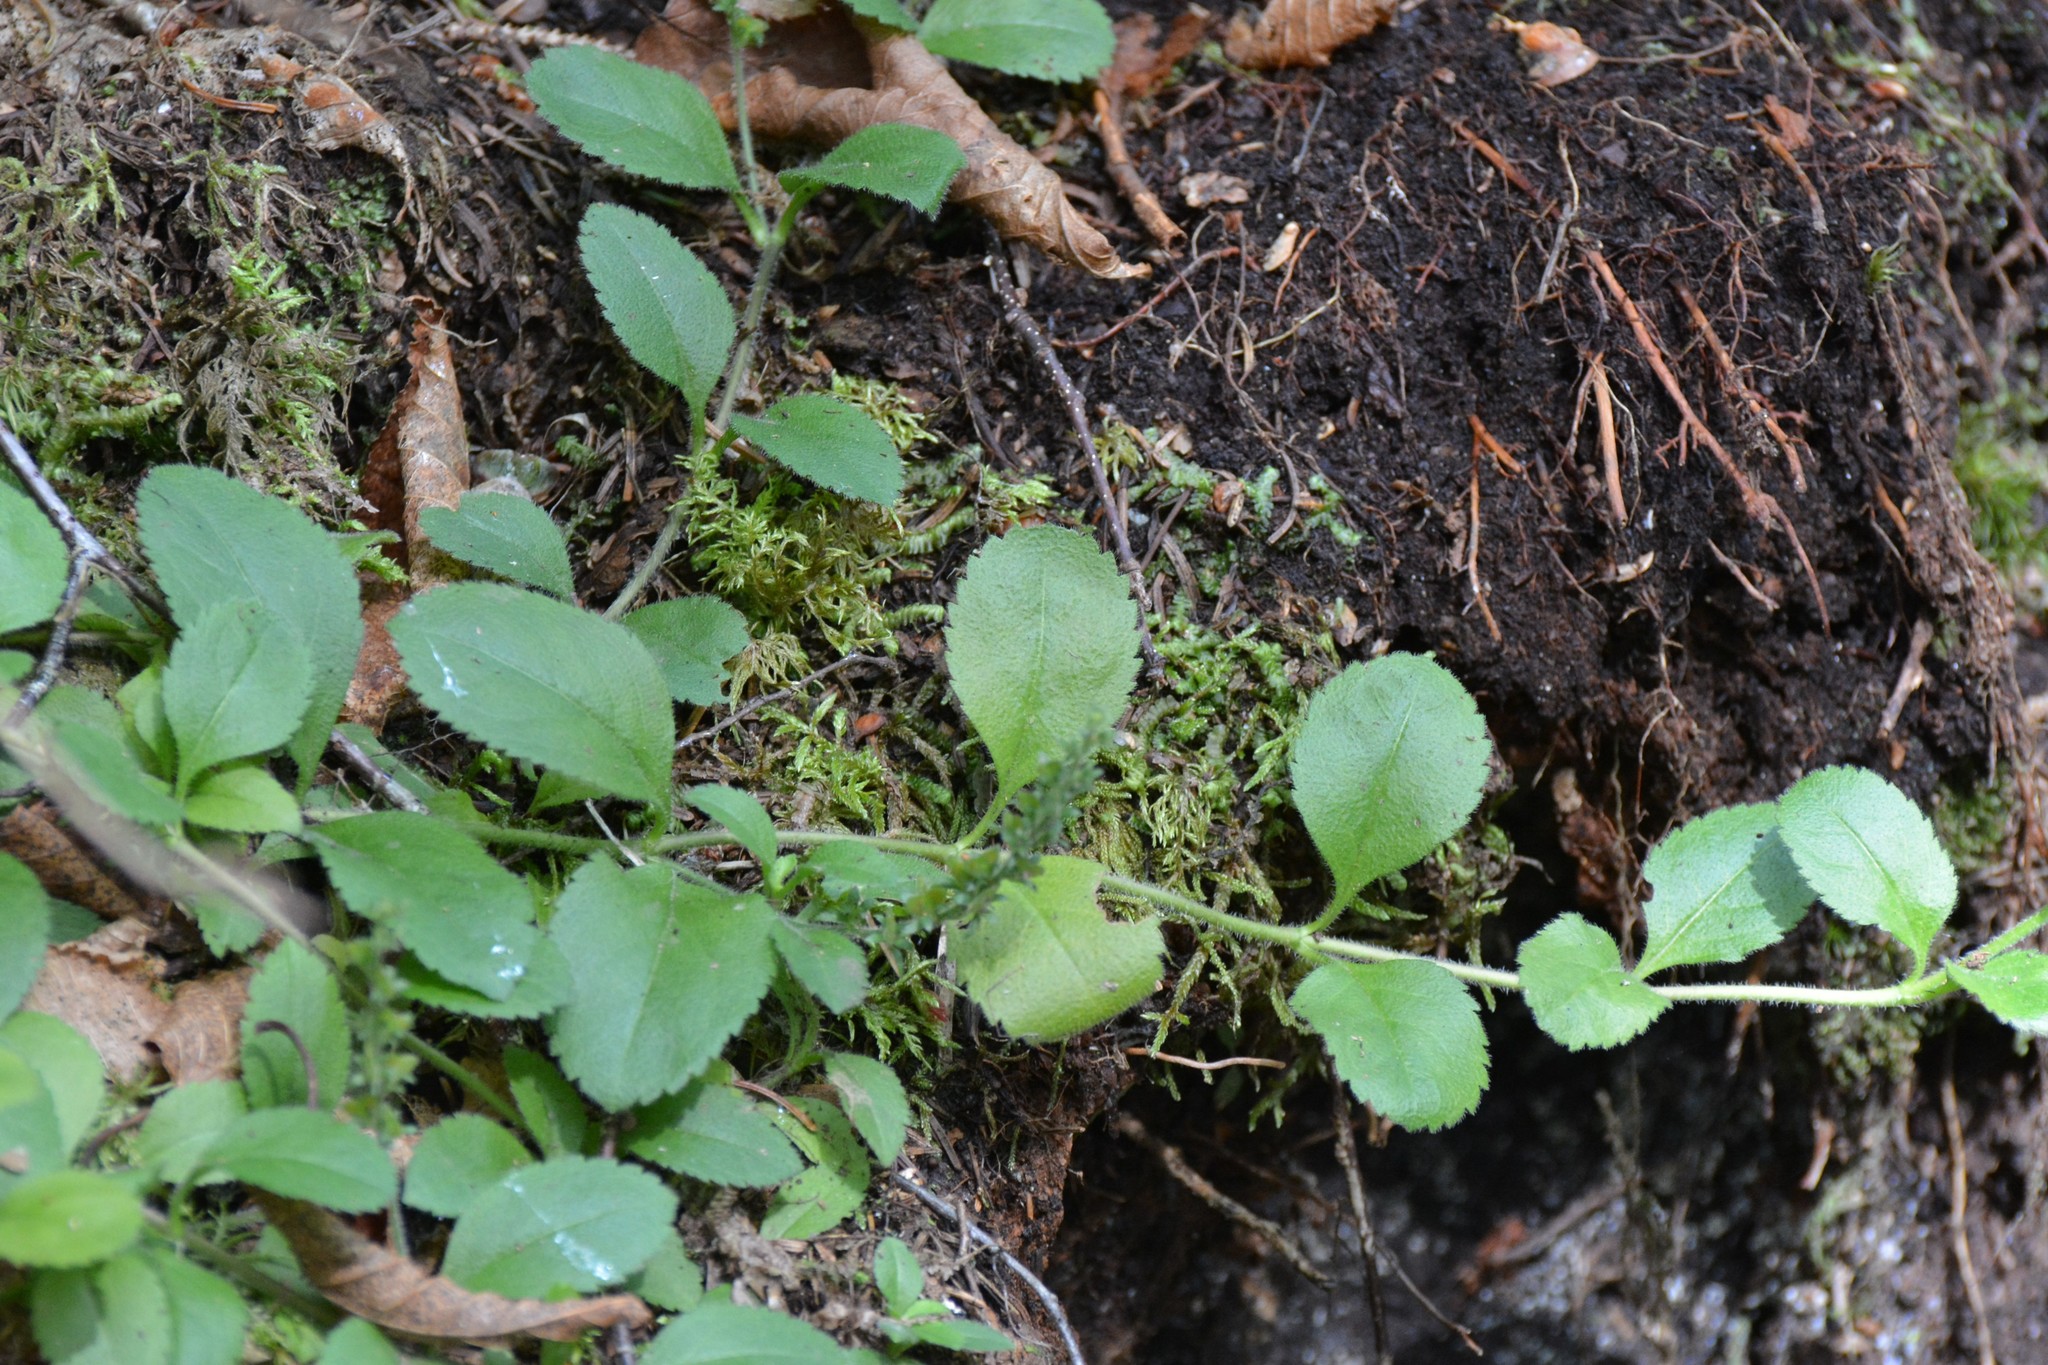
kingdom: Plantae
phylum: Tracheophyta
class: Magnoliopsida
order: Lamiales
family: Plantaginaceae
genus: Veronica
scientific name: Veronica officinalis
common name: Common speedwell
